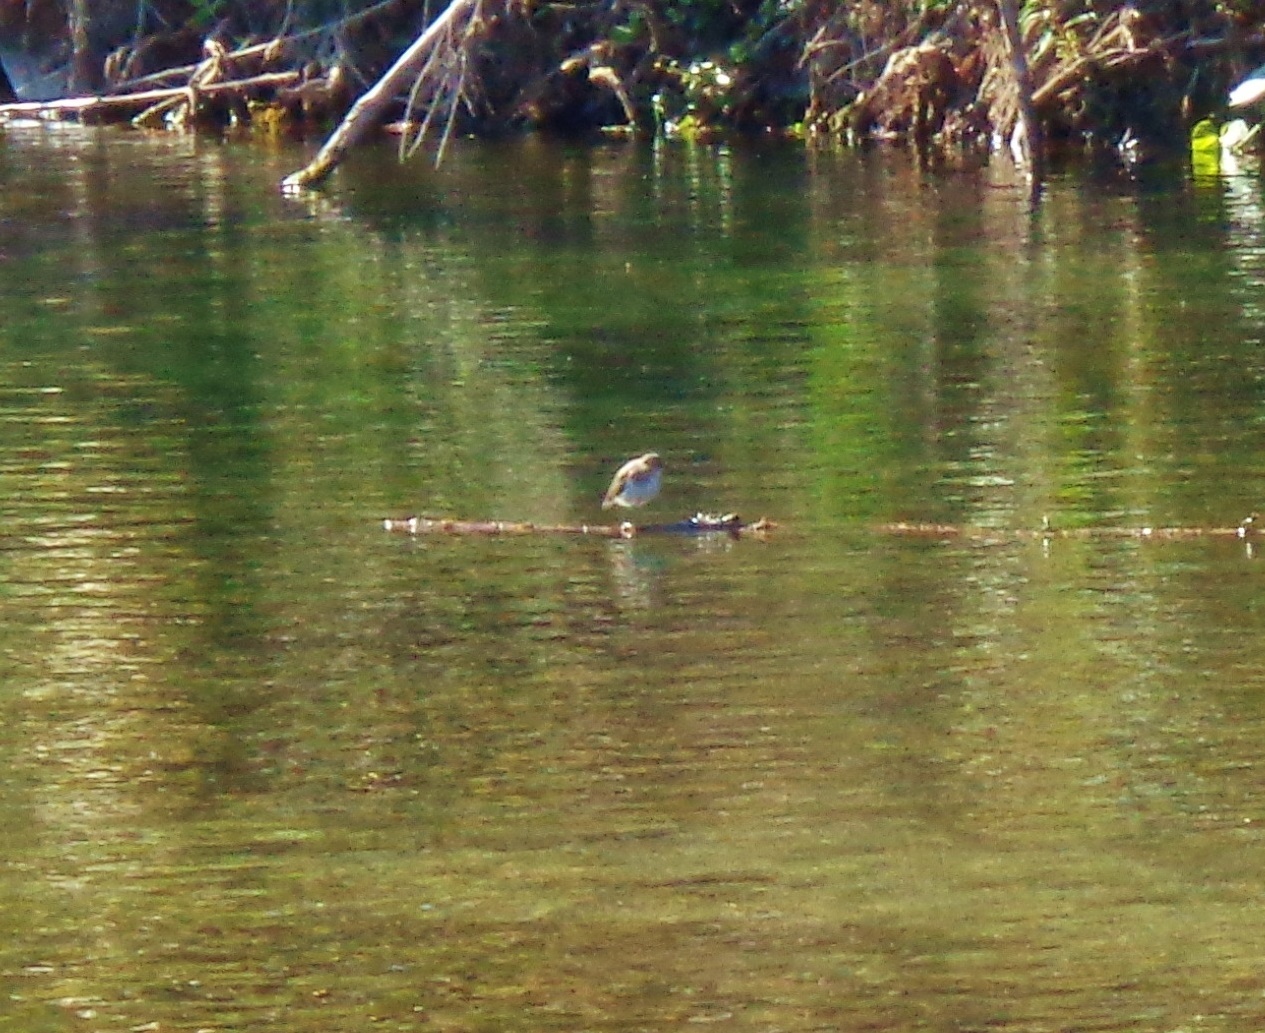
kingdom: Animalia
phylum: Chordata
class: Aves
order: Charadriiformes
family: Scolopacidae
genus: Actitis
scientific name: Actitis macularius
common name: Spotted sandpiper
